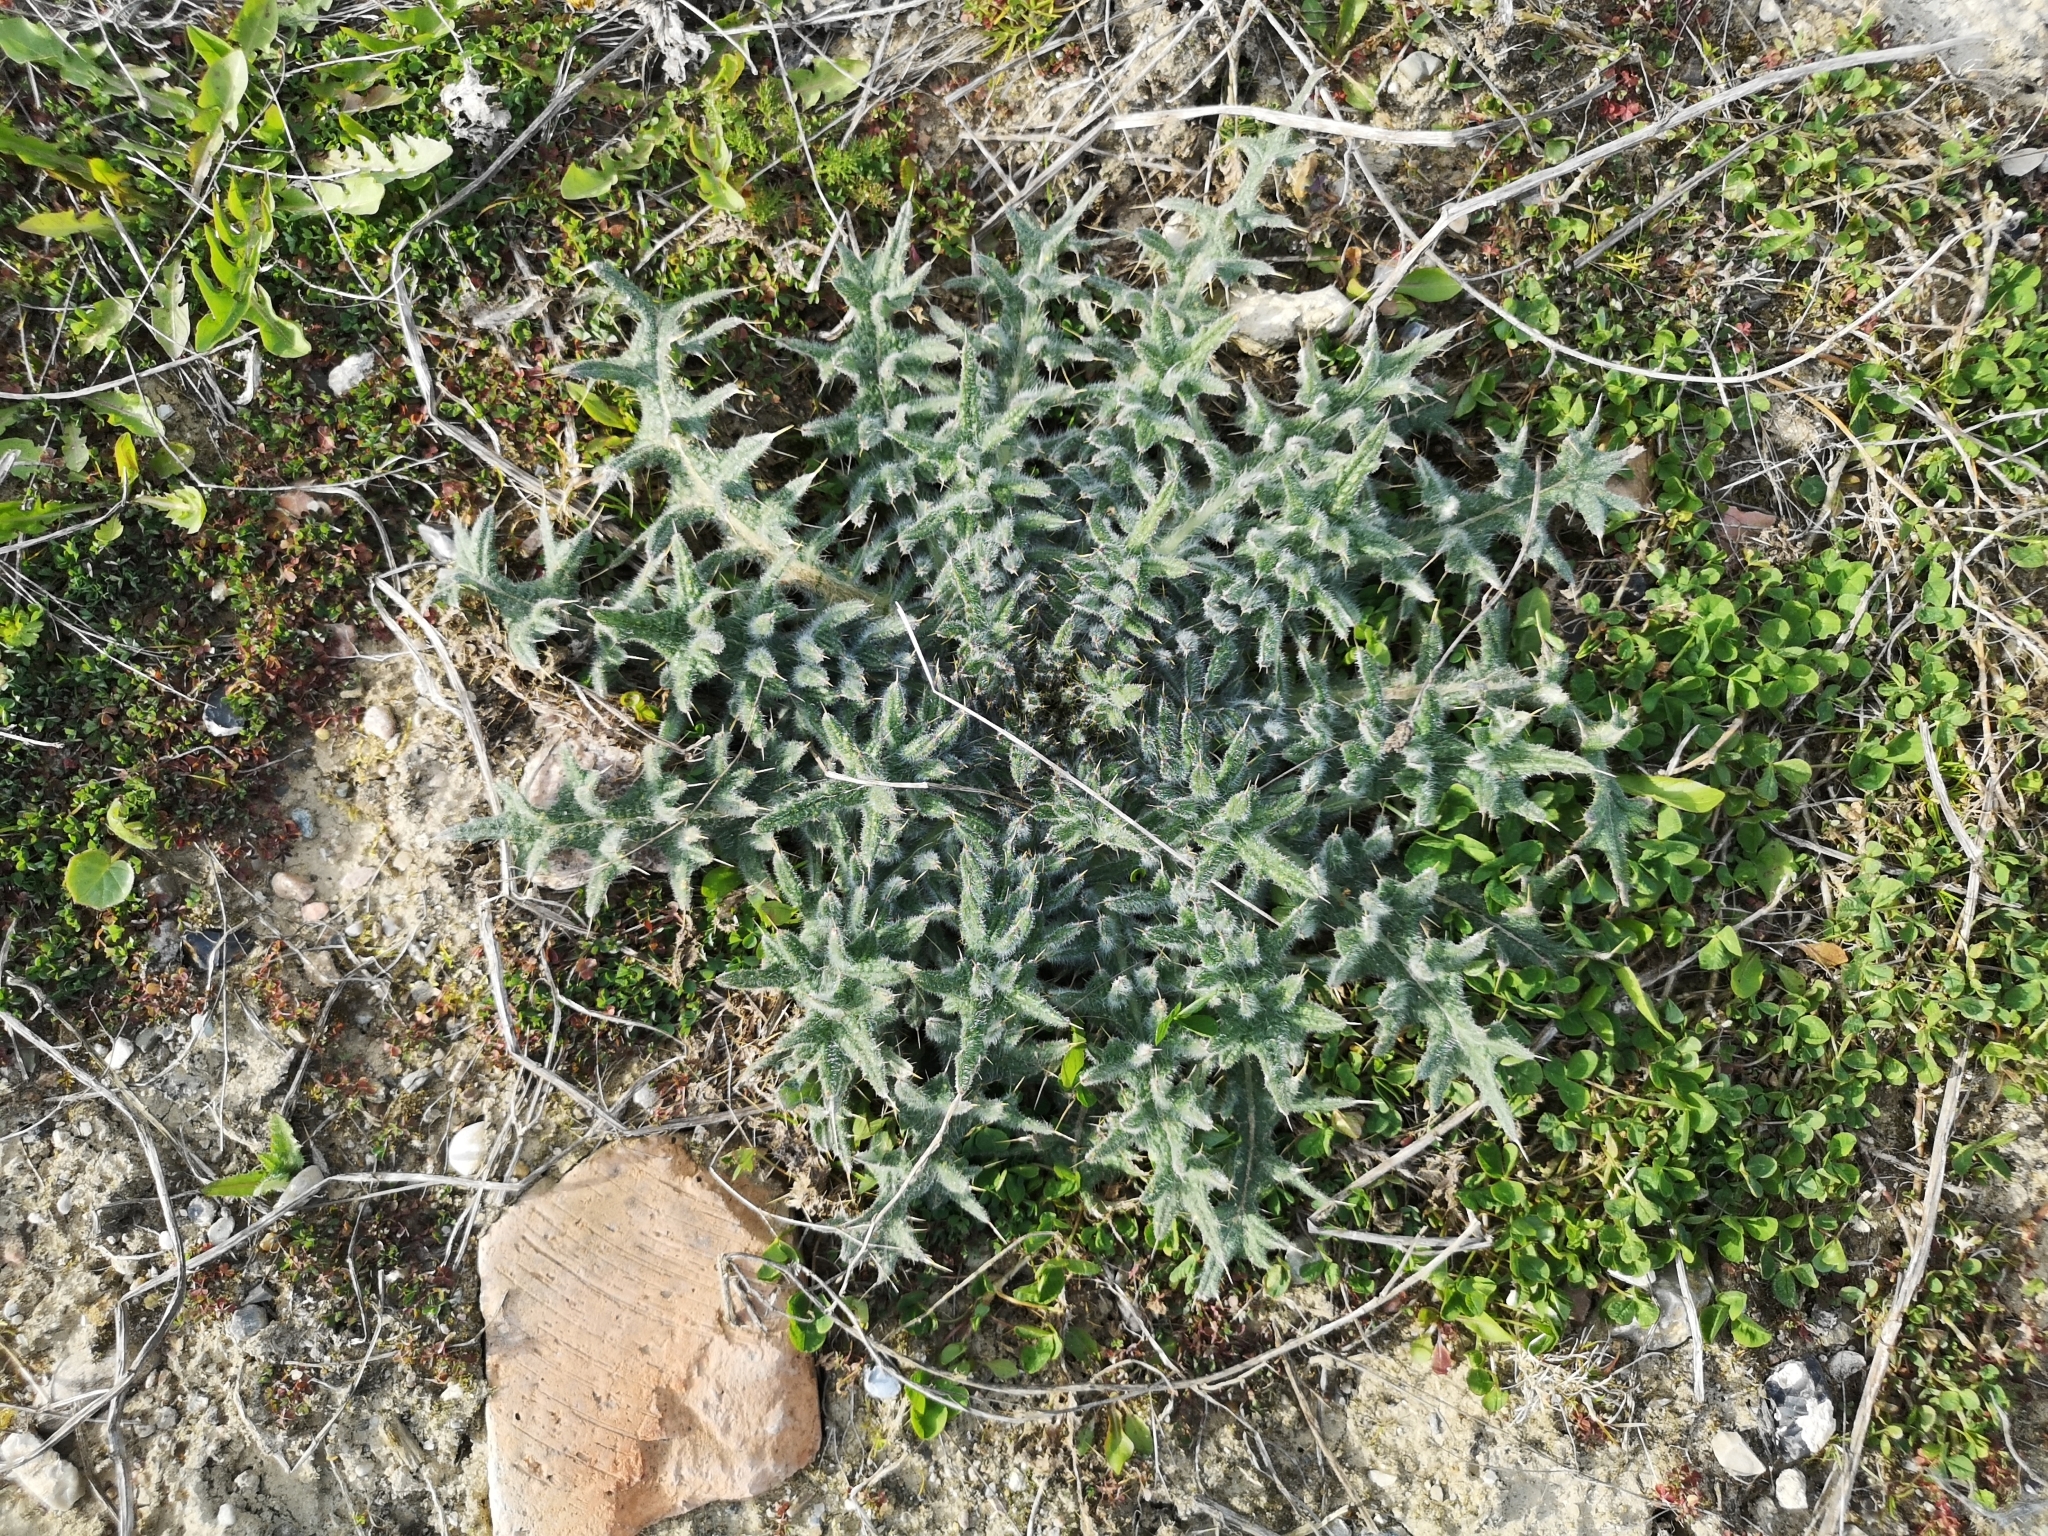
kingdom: Plantae
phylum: Tracheophyta
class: Magnoliopsida
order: Asterales
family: Asteraceae
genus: Cirsium
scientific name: Cirsium vulgare
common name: Bull thistle
